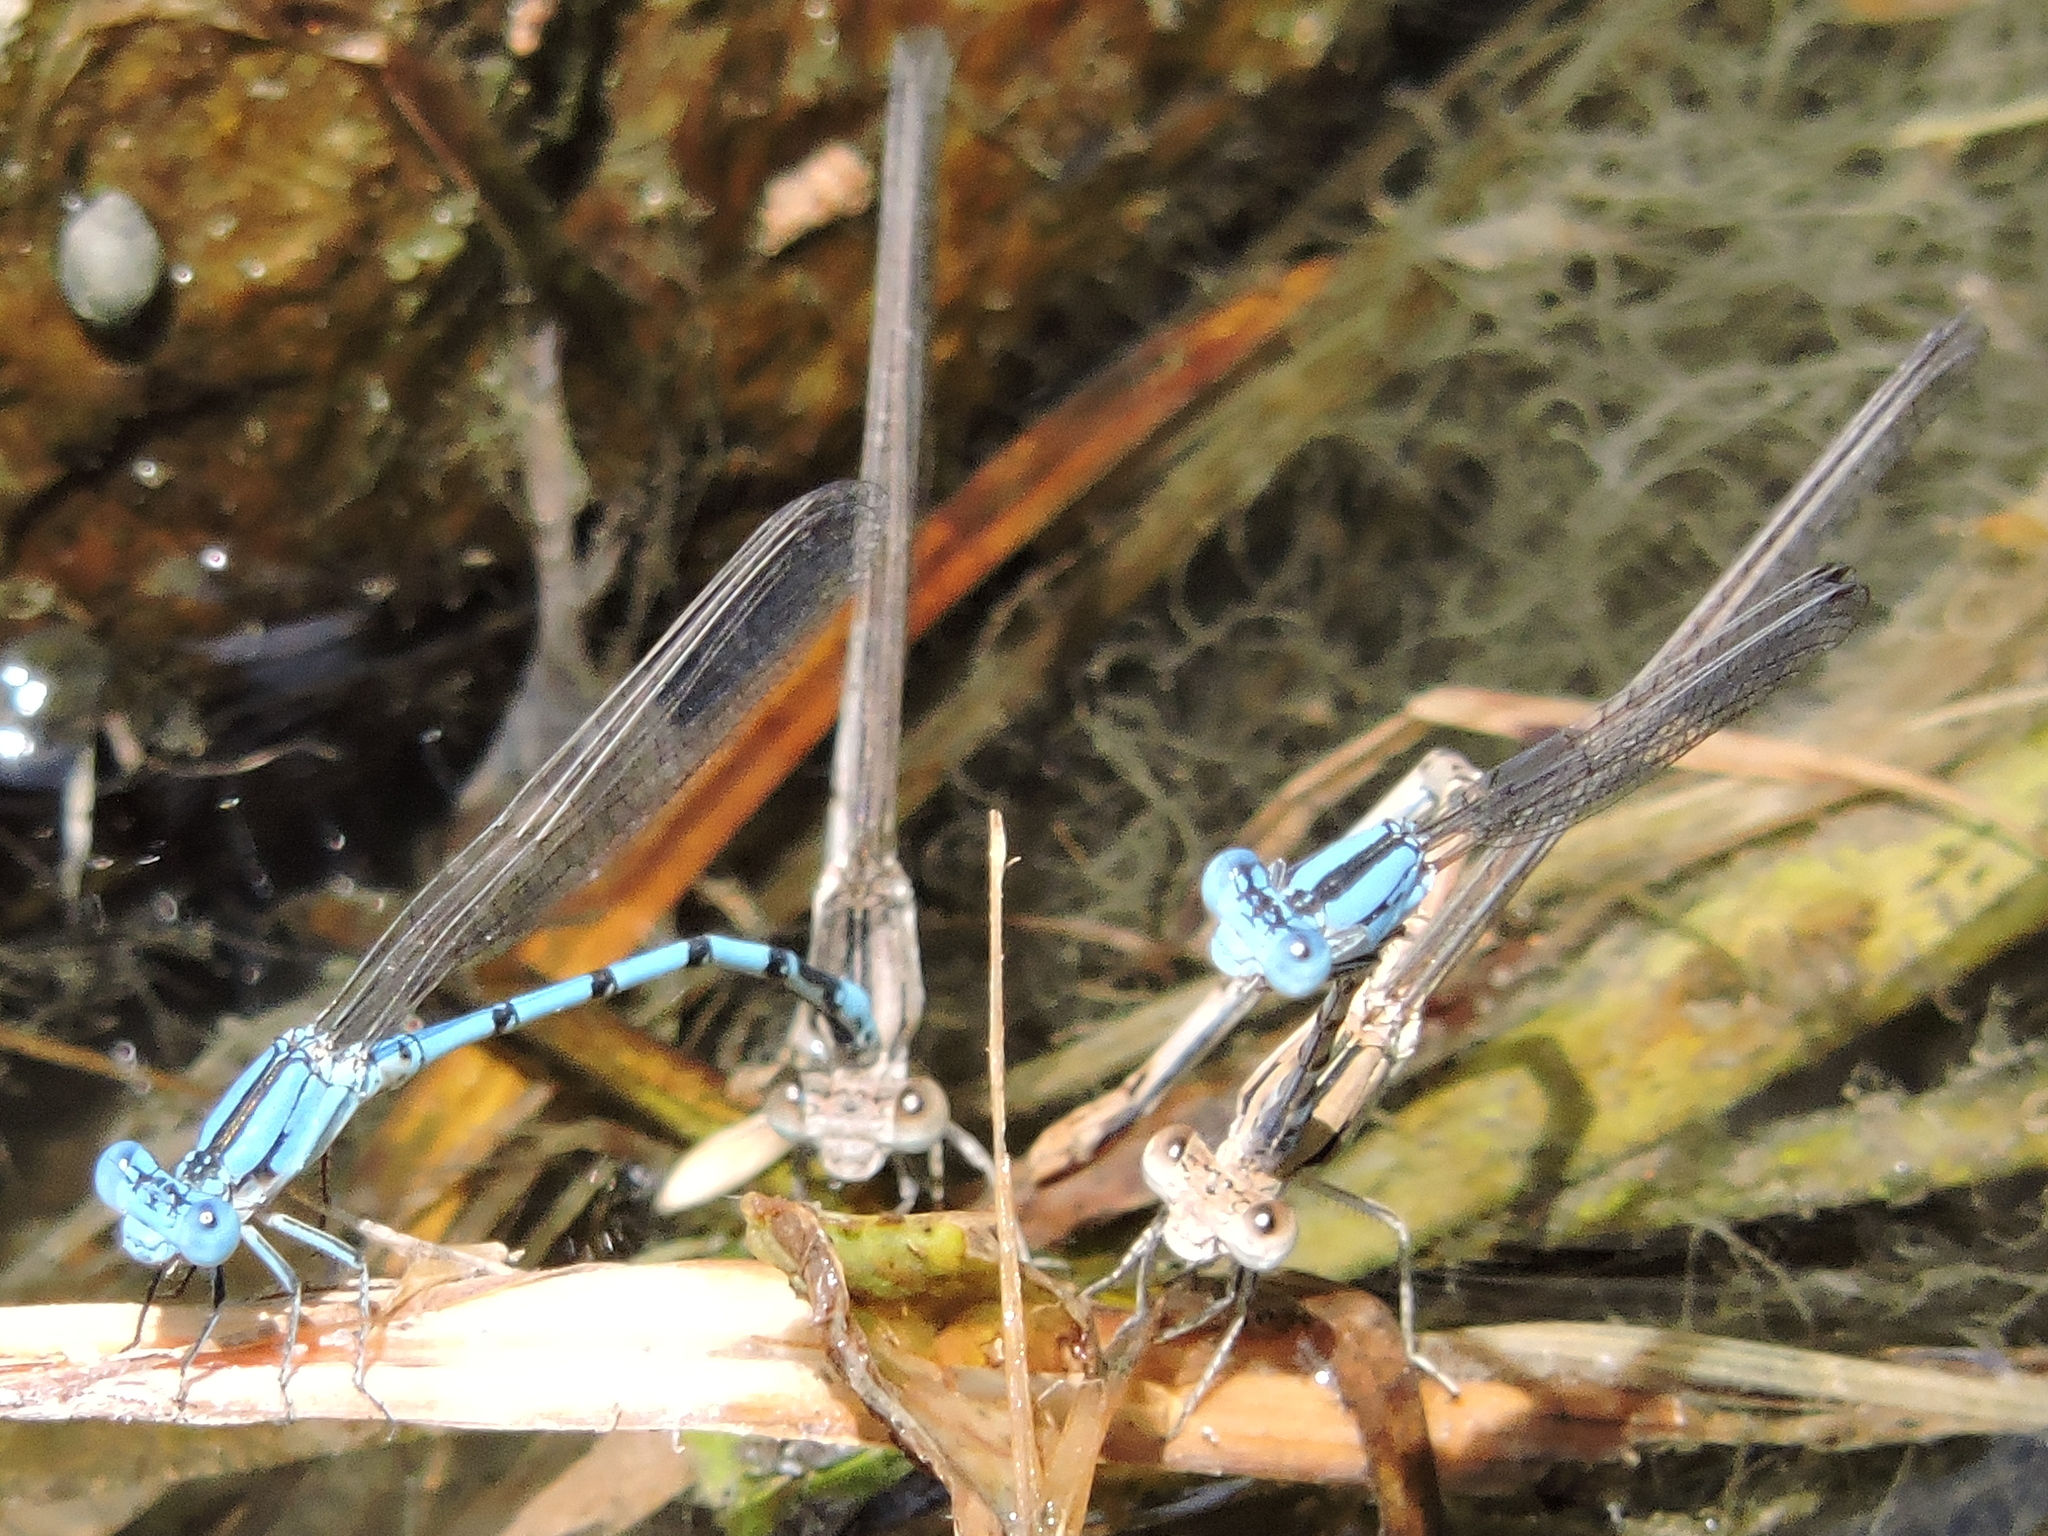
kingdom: Animalia
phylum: Arthropoda
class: Insecta
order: Odonata
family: Coenagrionidae
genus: Argia
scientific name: Argia nahuana
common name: Aztec dancer
